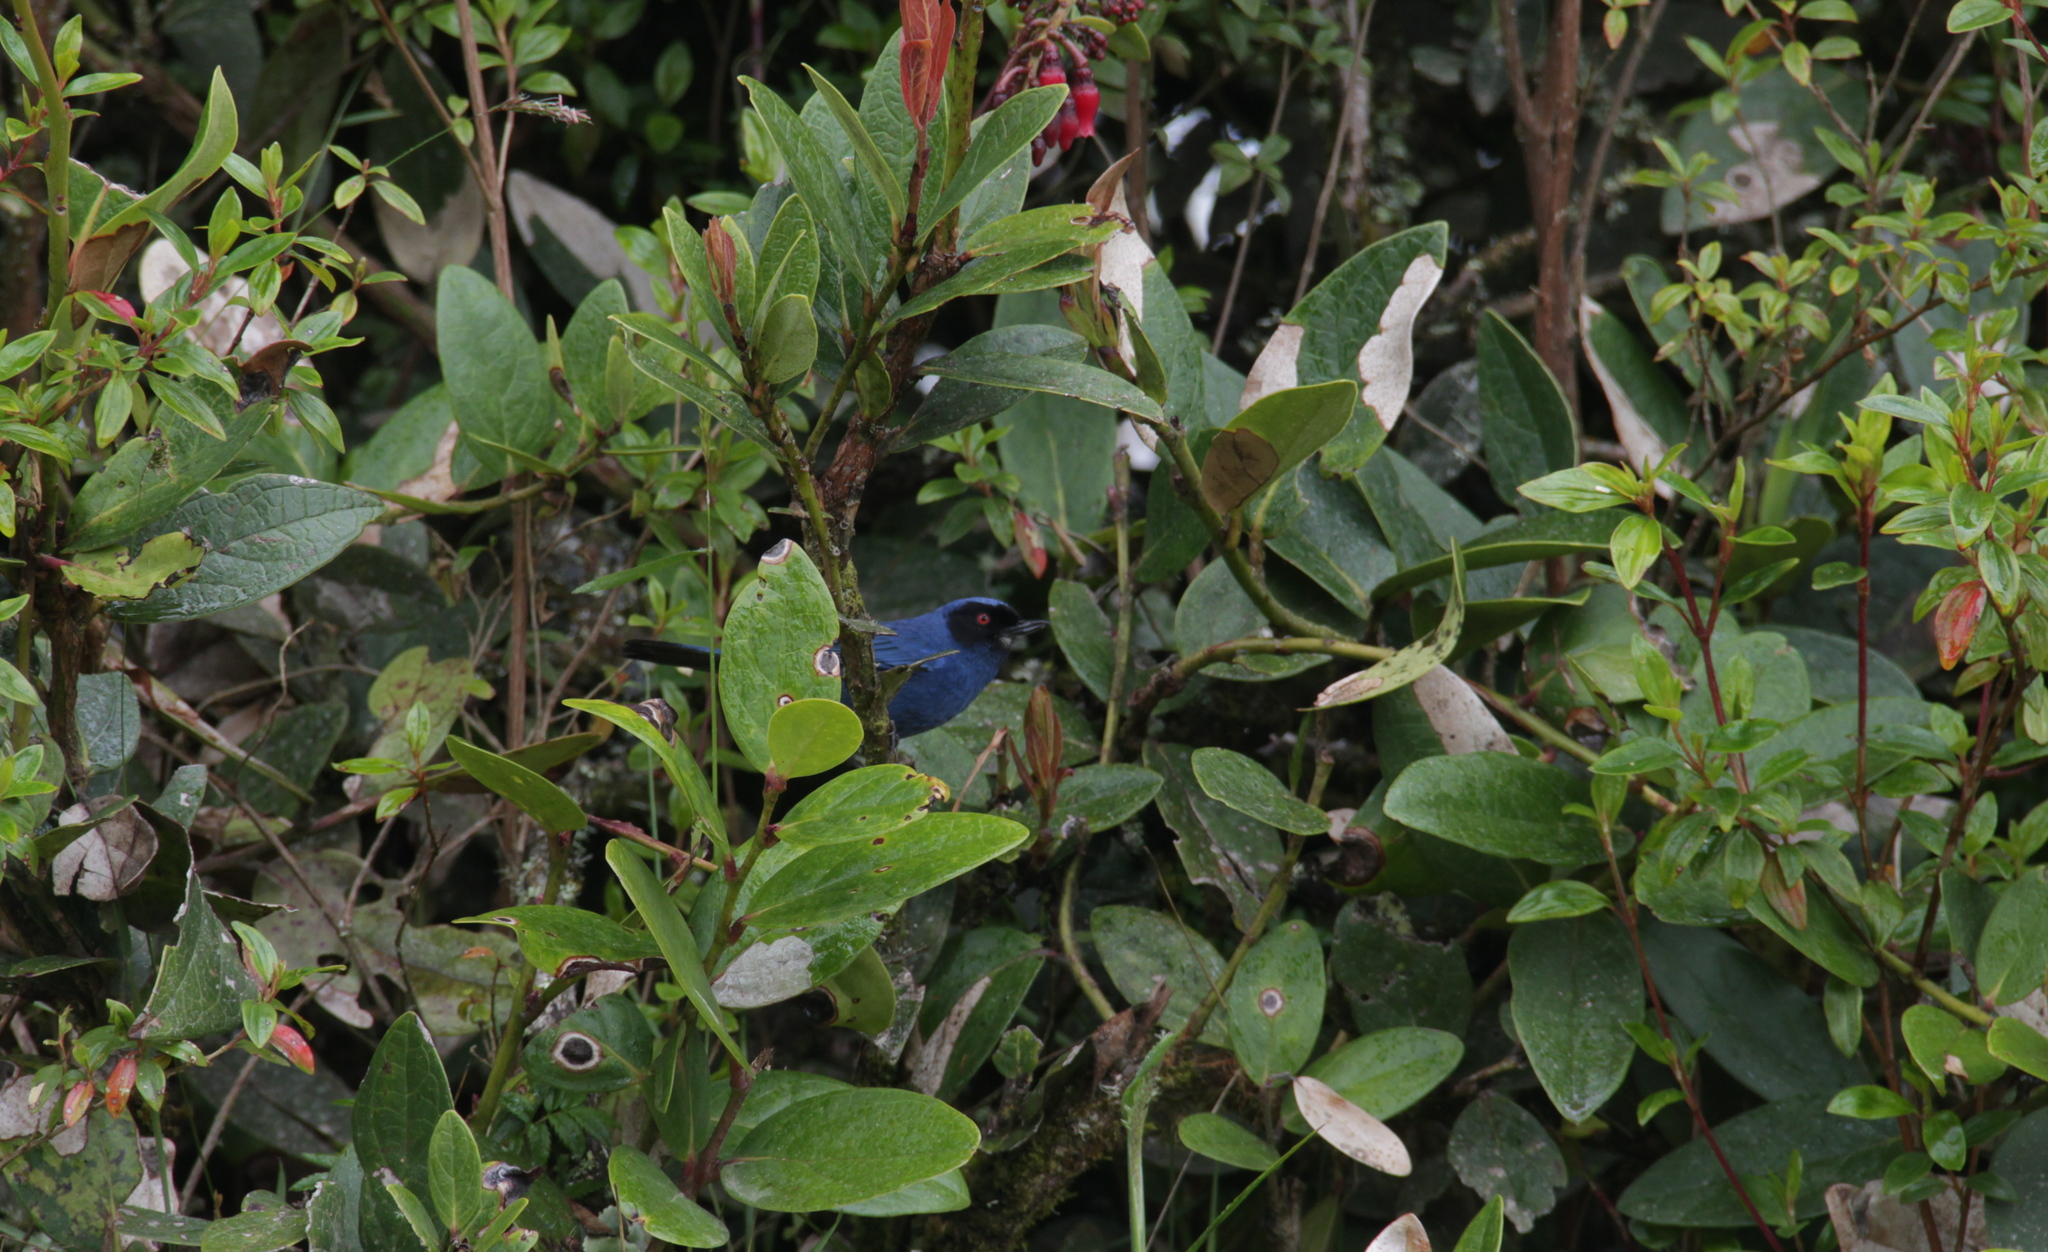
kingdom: Animalia
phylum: Chordata
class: Aves
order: Passeriformes
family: Thraupidae
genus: Diglossa
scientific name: Diglossa cyanea
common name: Masked flowerpiercer
